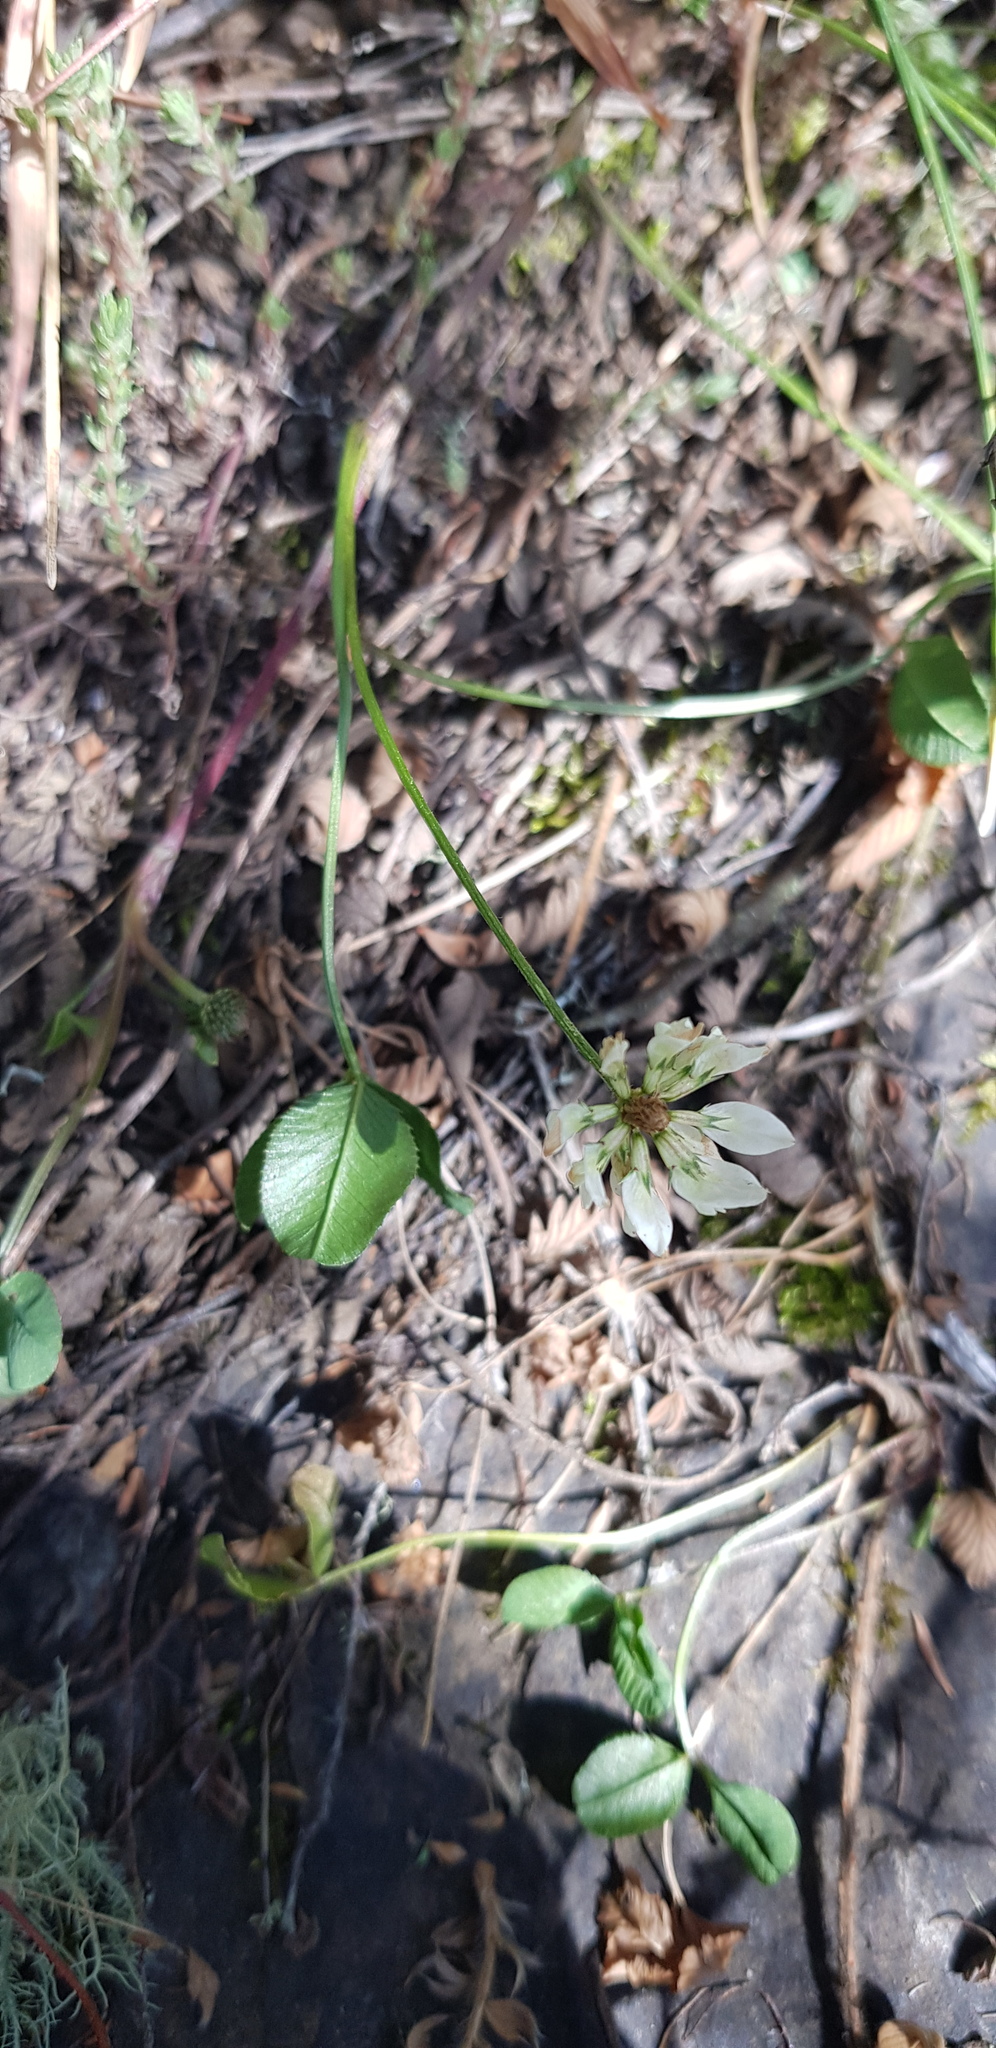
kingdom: Plantae
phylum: Tracheophyta
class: Magnoliopsida
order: Fabales
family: Fabaceae
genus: Trifolium
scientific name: Trifolium repens
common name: White clover
